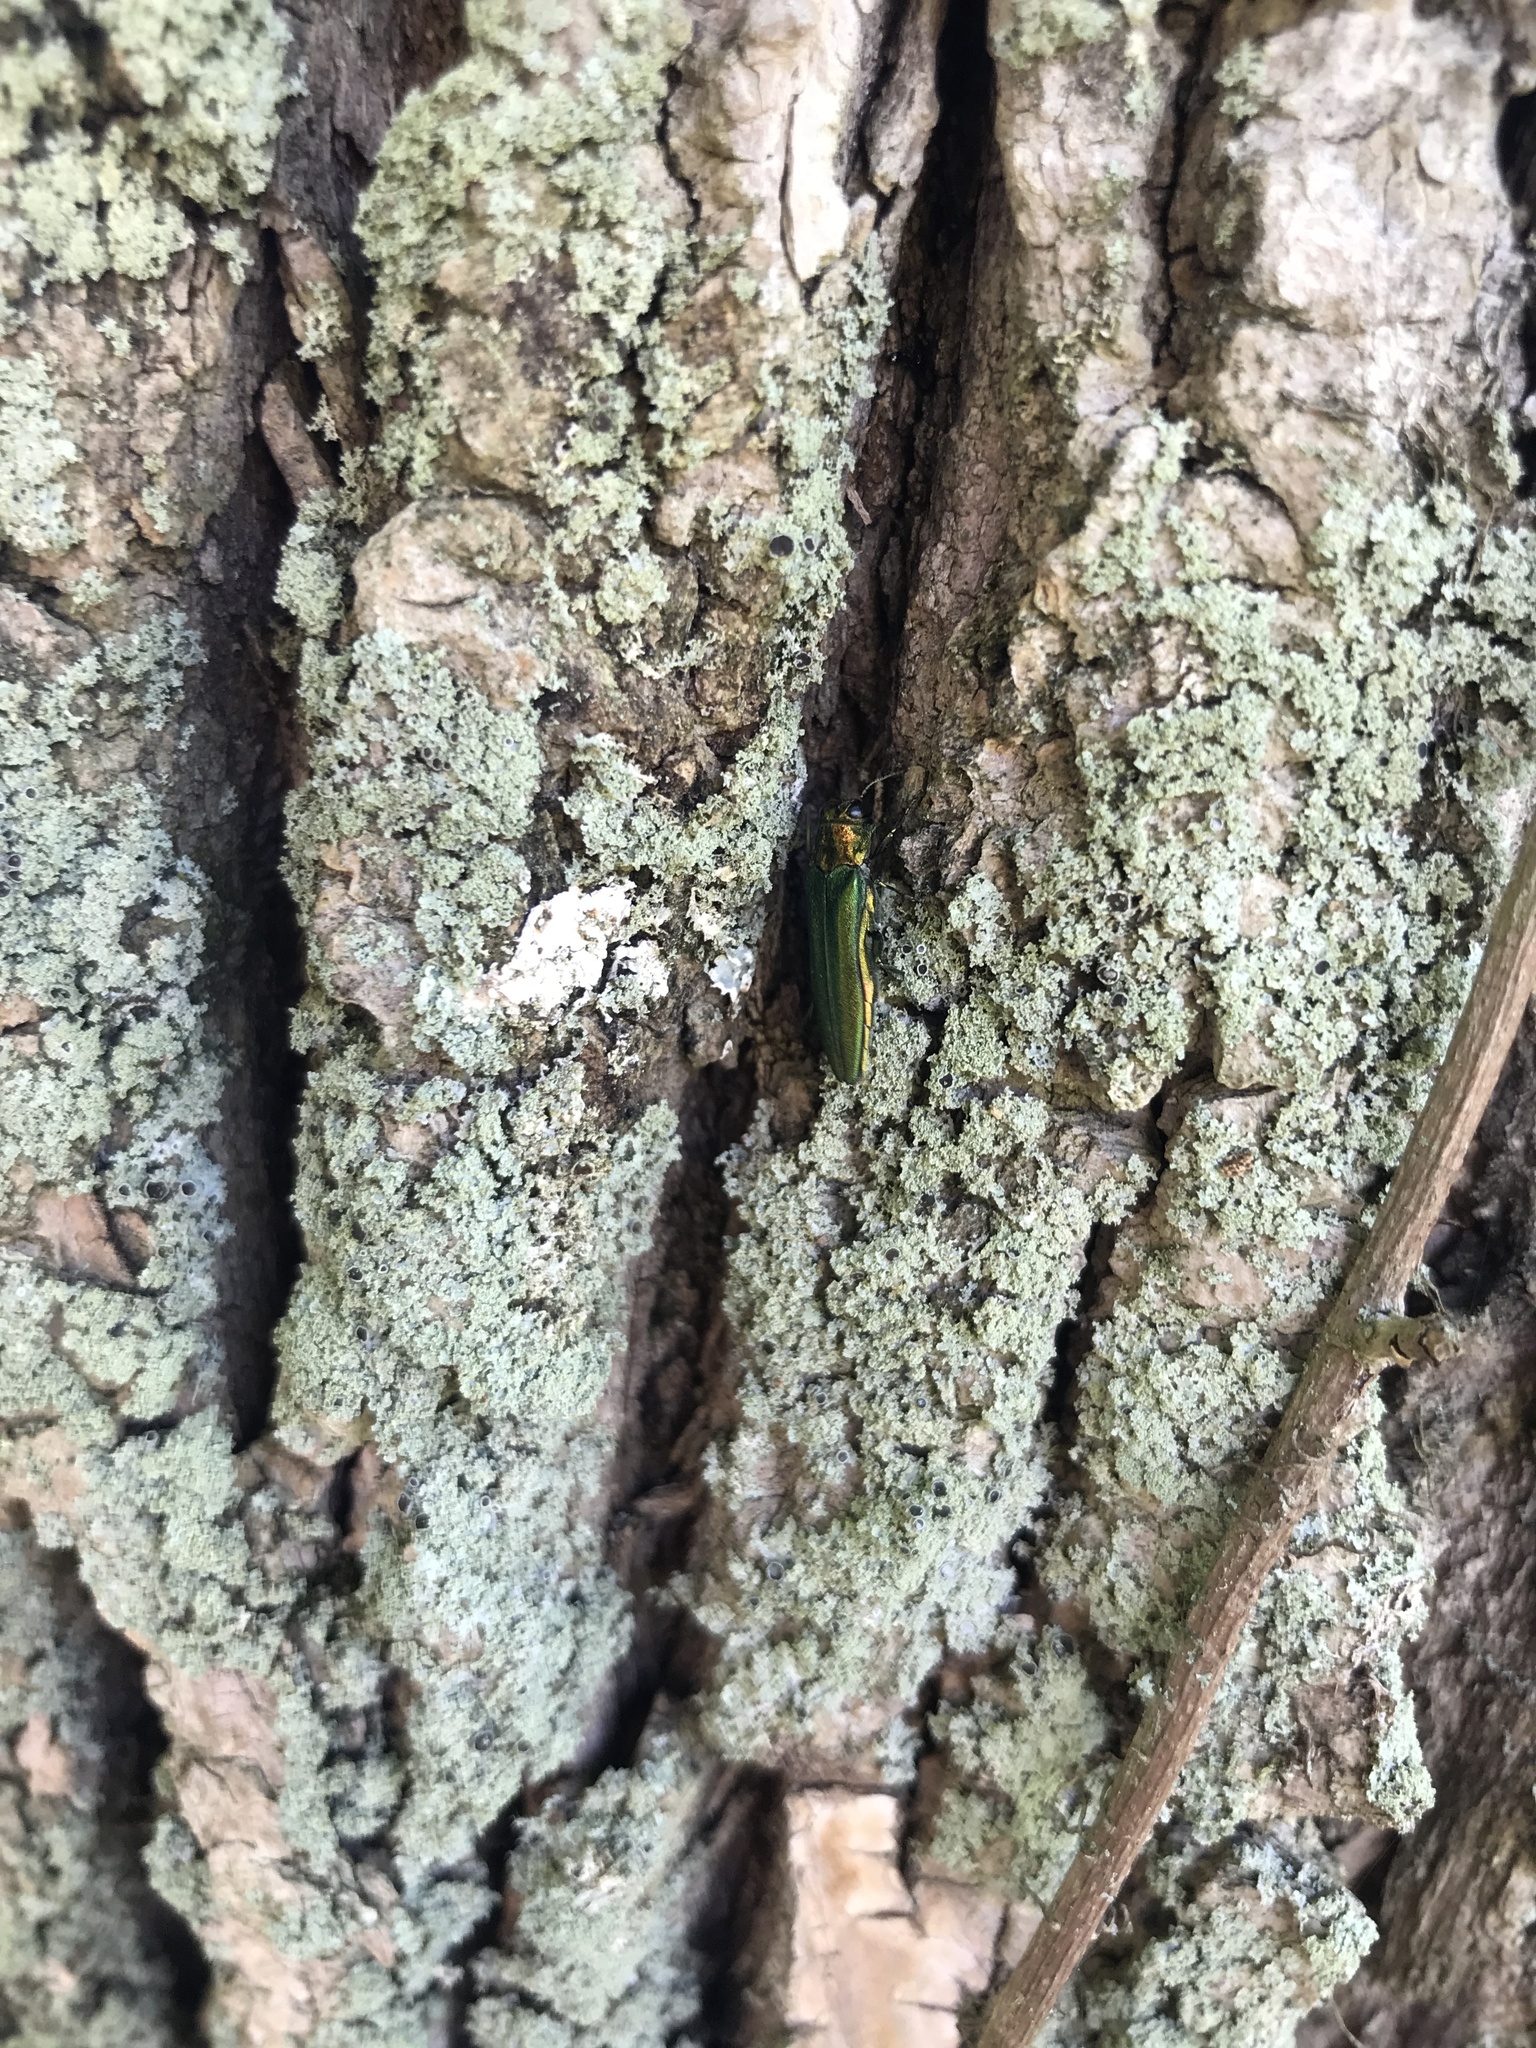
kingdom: Animalia
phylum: Arthropoda
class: Insecta
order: Coleoptera
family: Buprestidae
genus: Agrilus
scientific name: Agrilus planipennis
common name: Emerald ash borer
